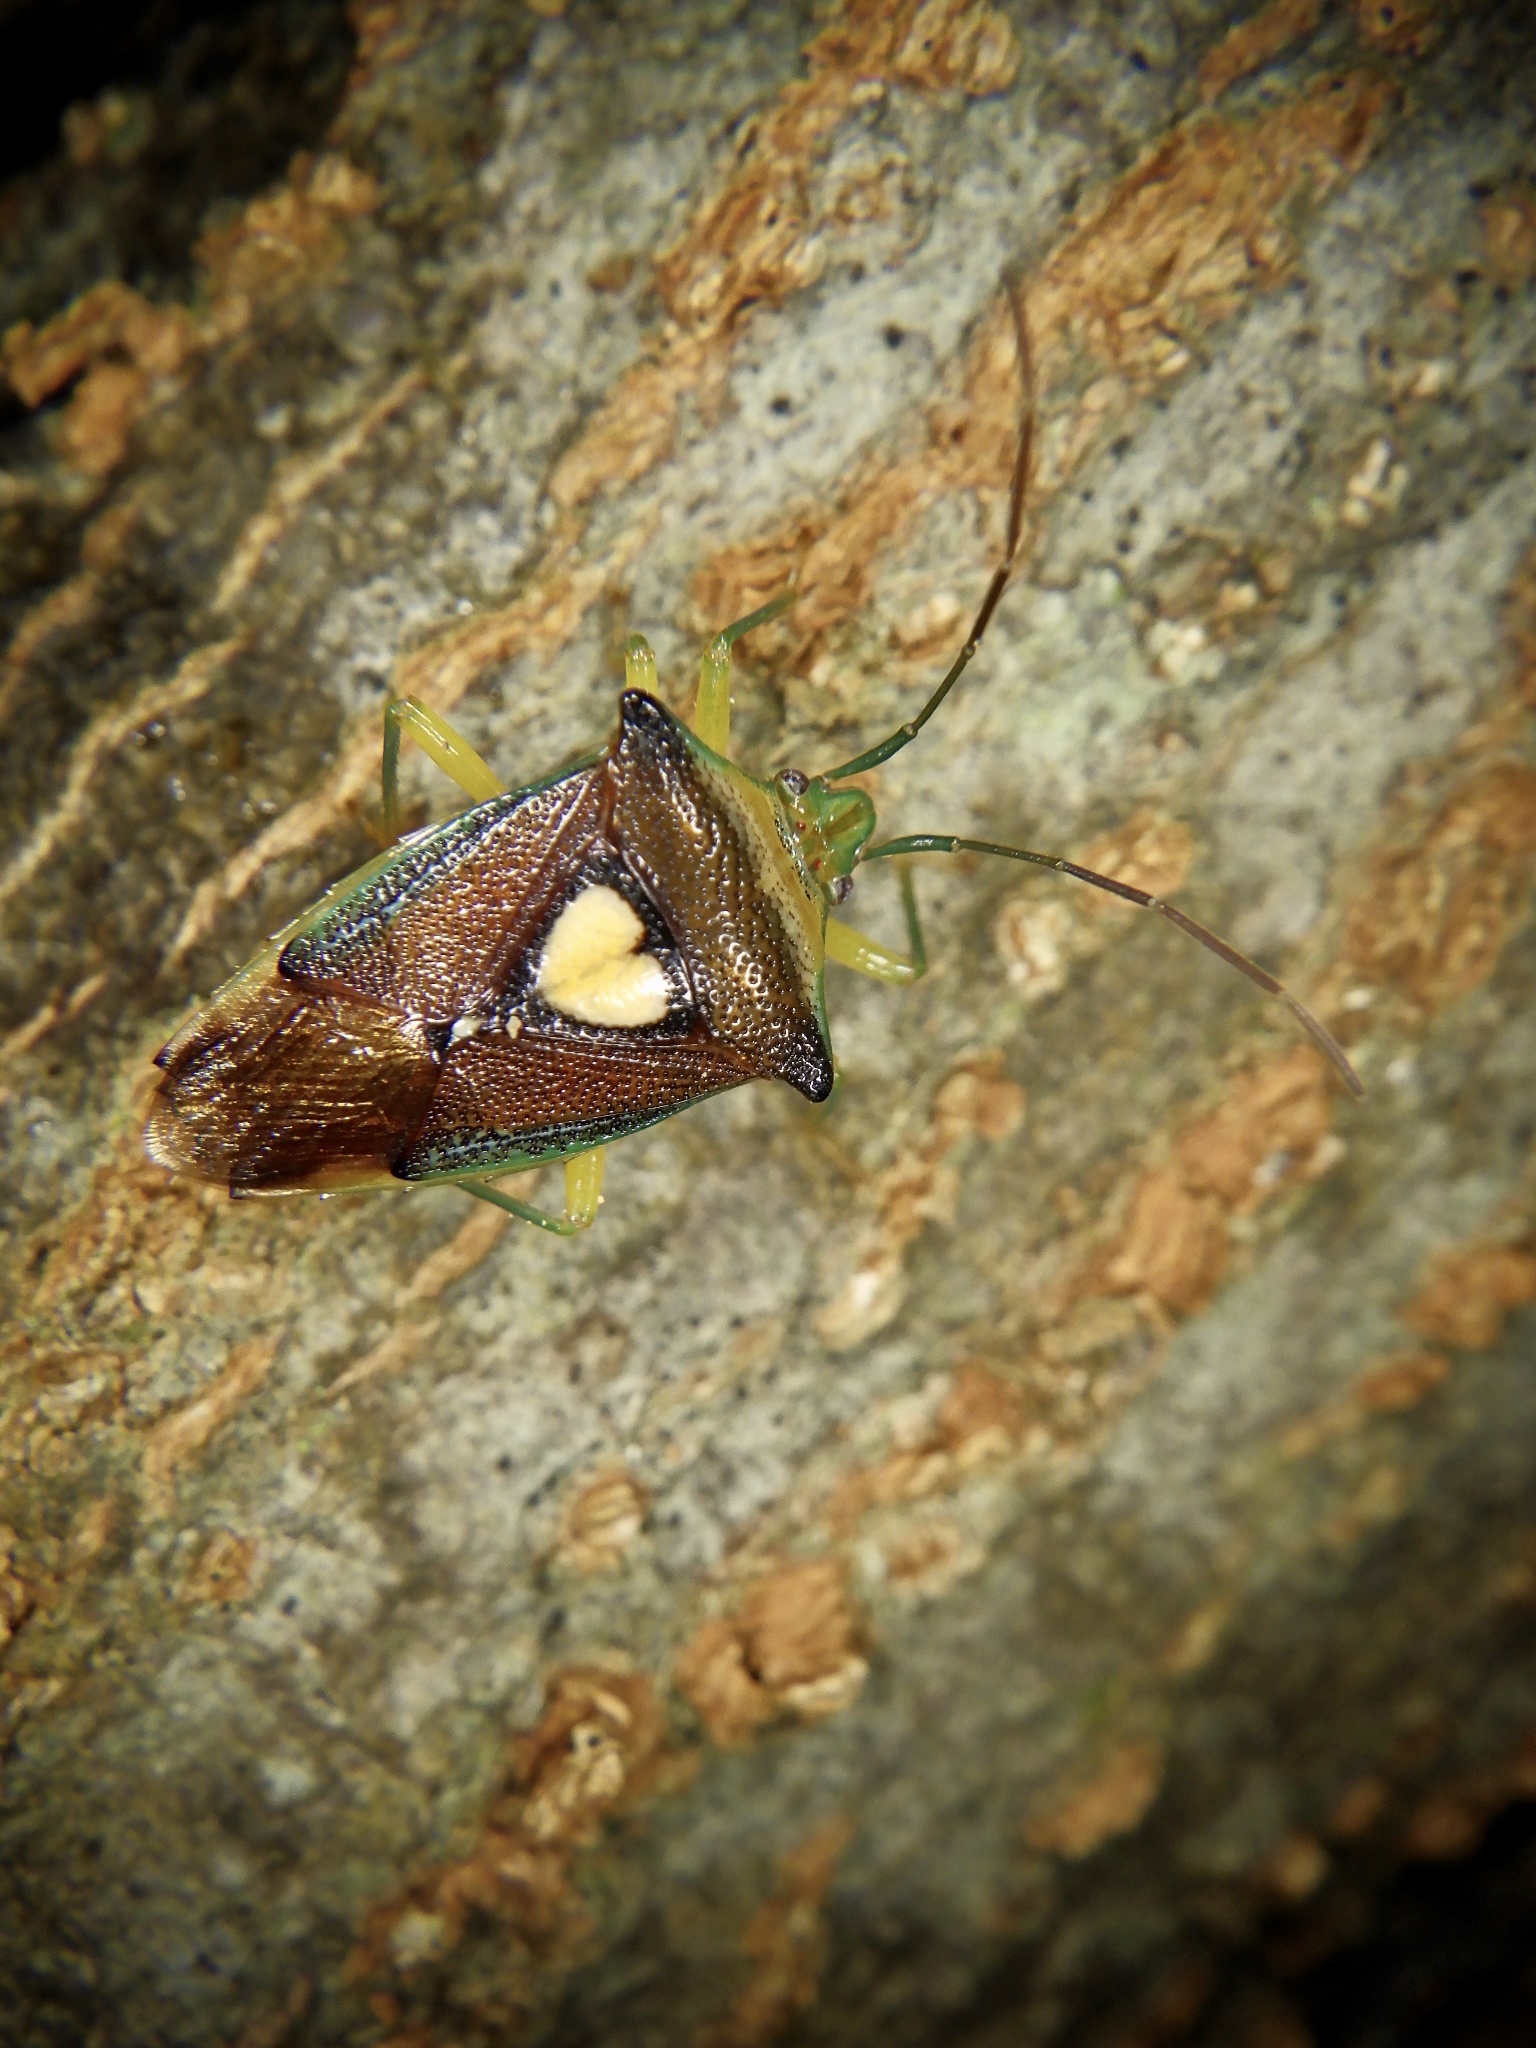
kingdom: Animalia
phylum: Arthropoda
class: Insecta
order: Hemiptera
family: Acanthosomatidae
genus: Sastragala
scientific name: Sastragala esakii
